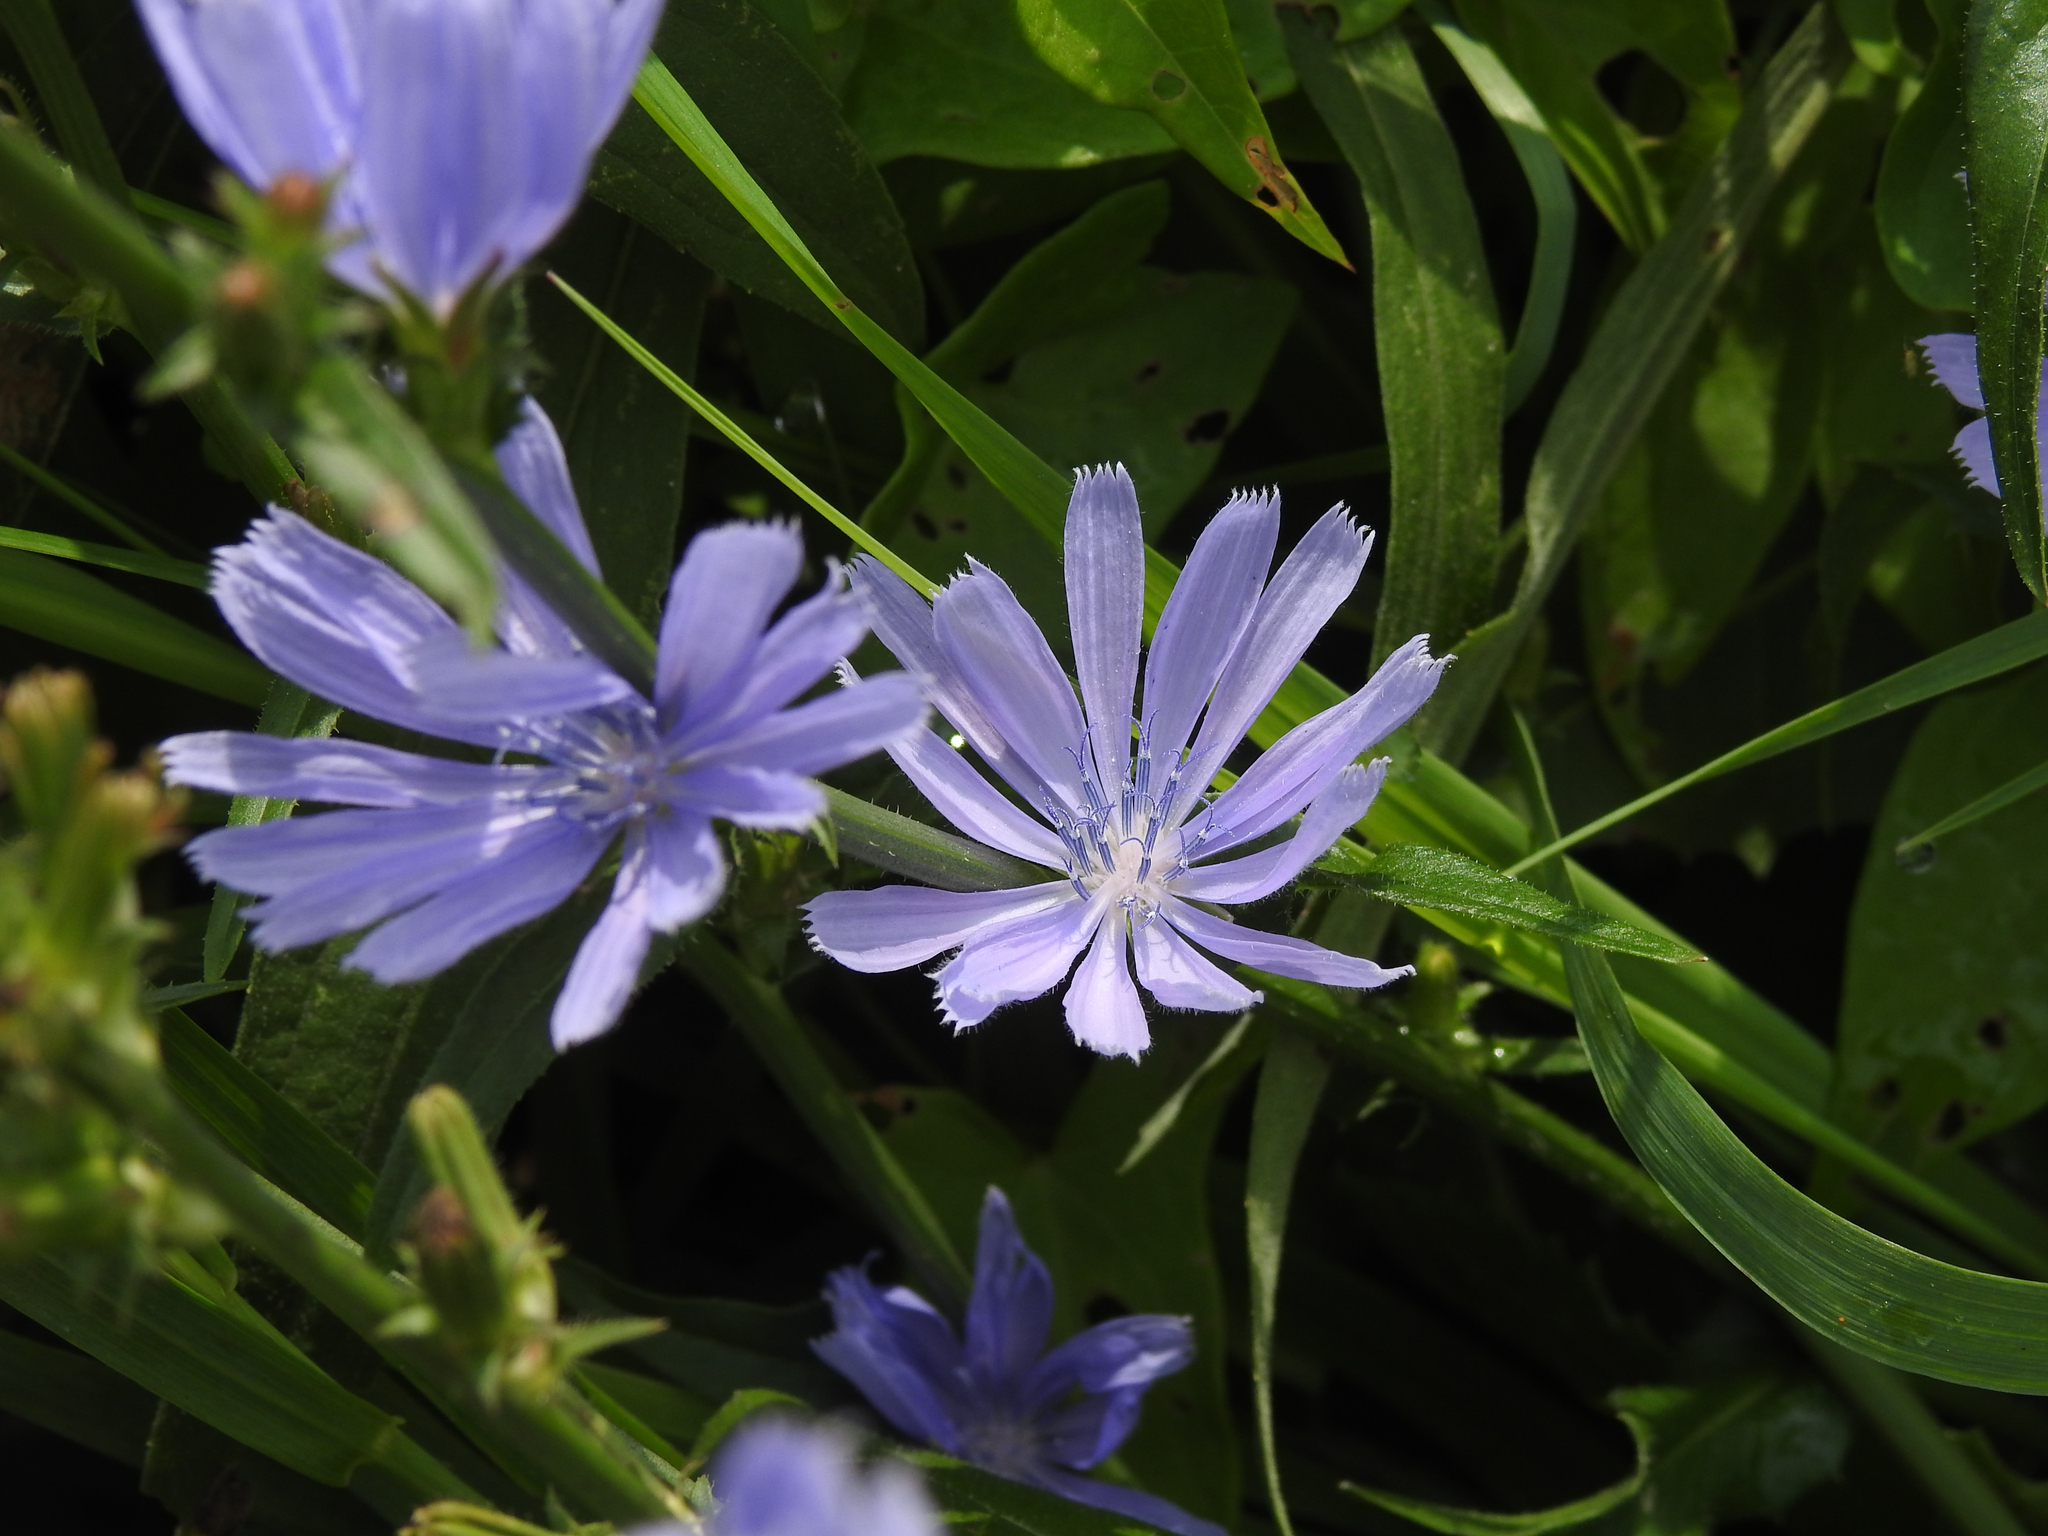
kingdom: Plantae
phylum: Tracheophyta
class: Magnoliopsida
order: Asterales
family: Asteraceae
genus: Cichorium
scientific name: Cichorium intybus
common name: Chicory
